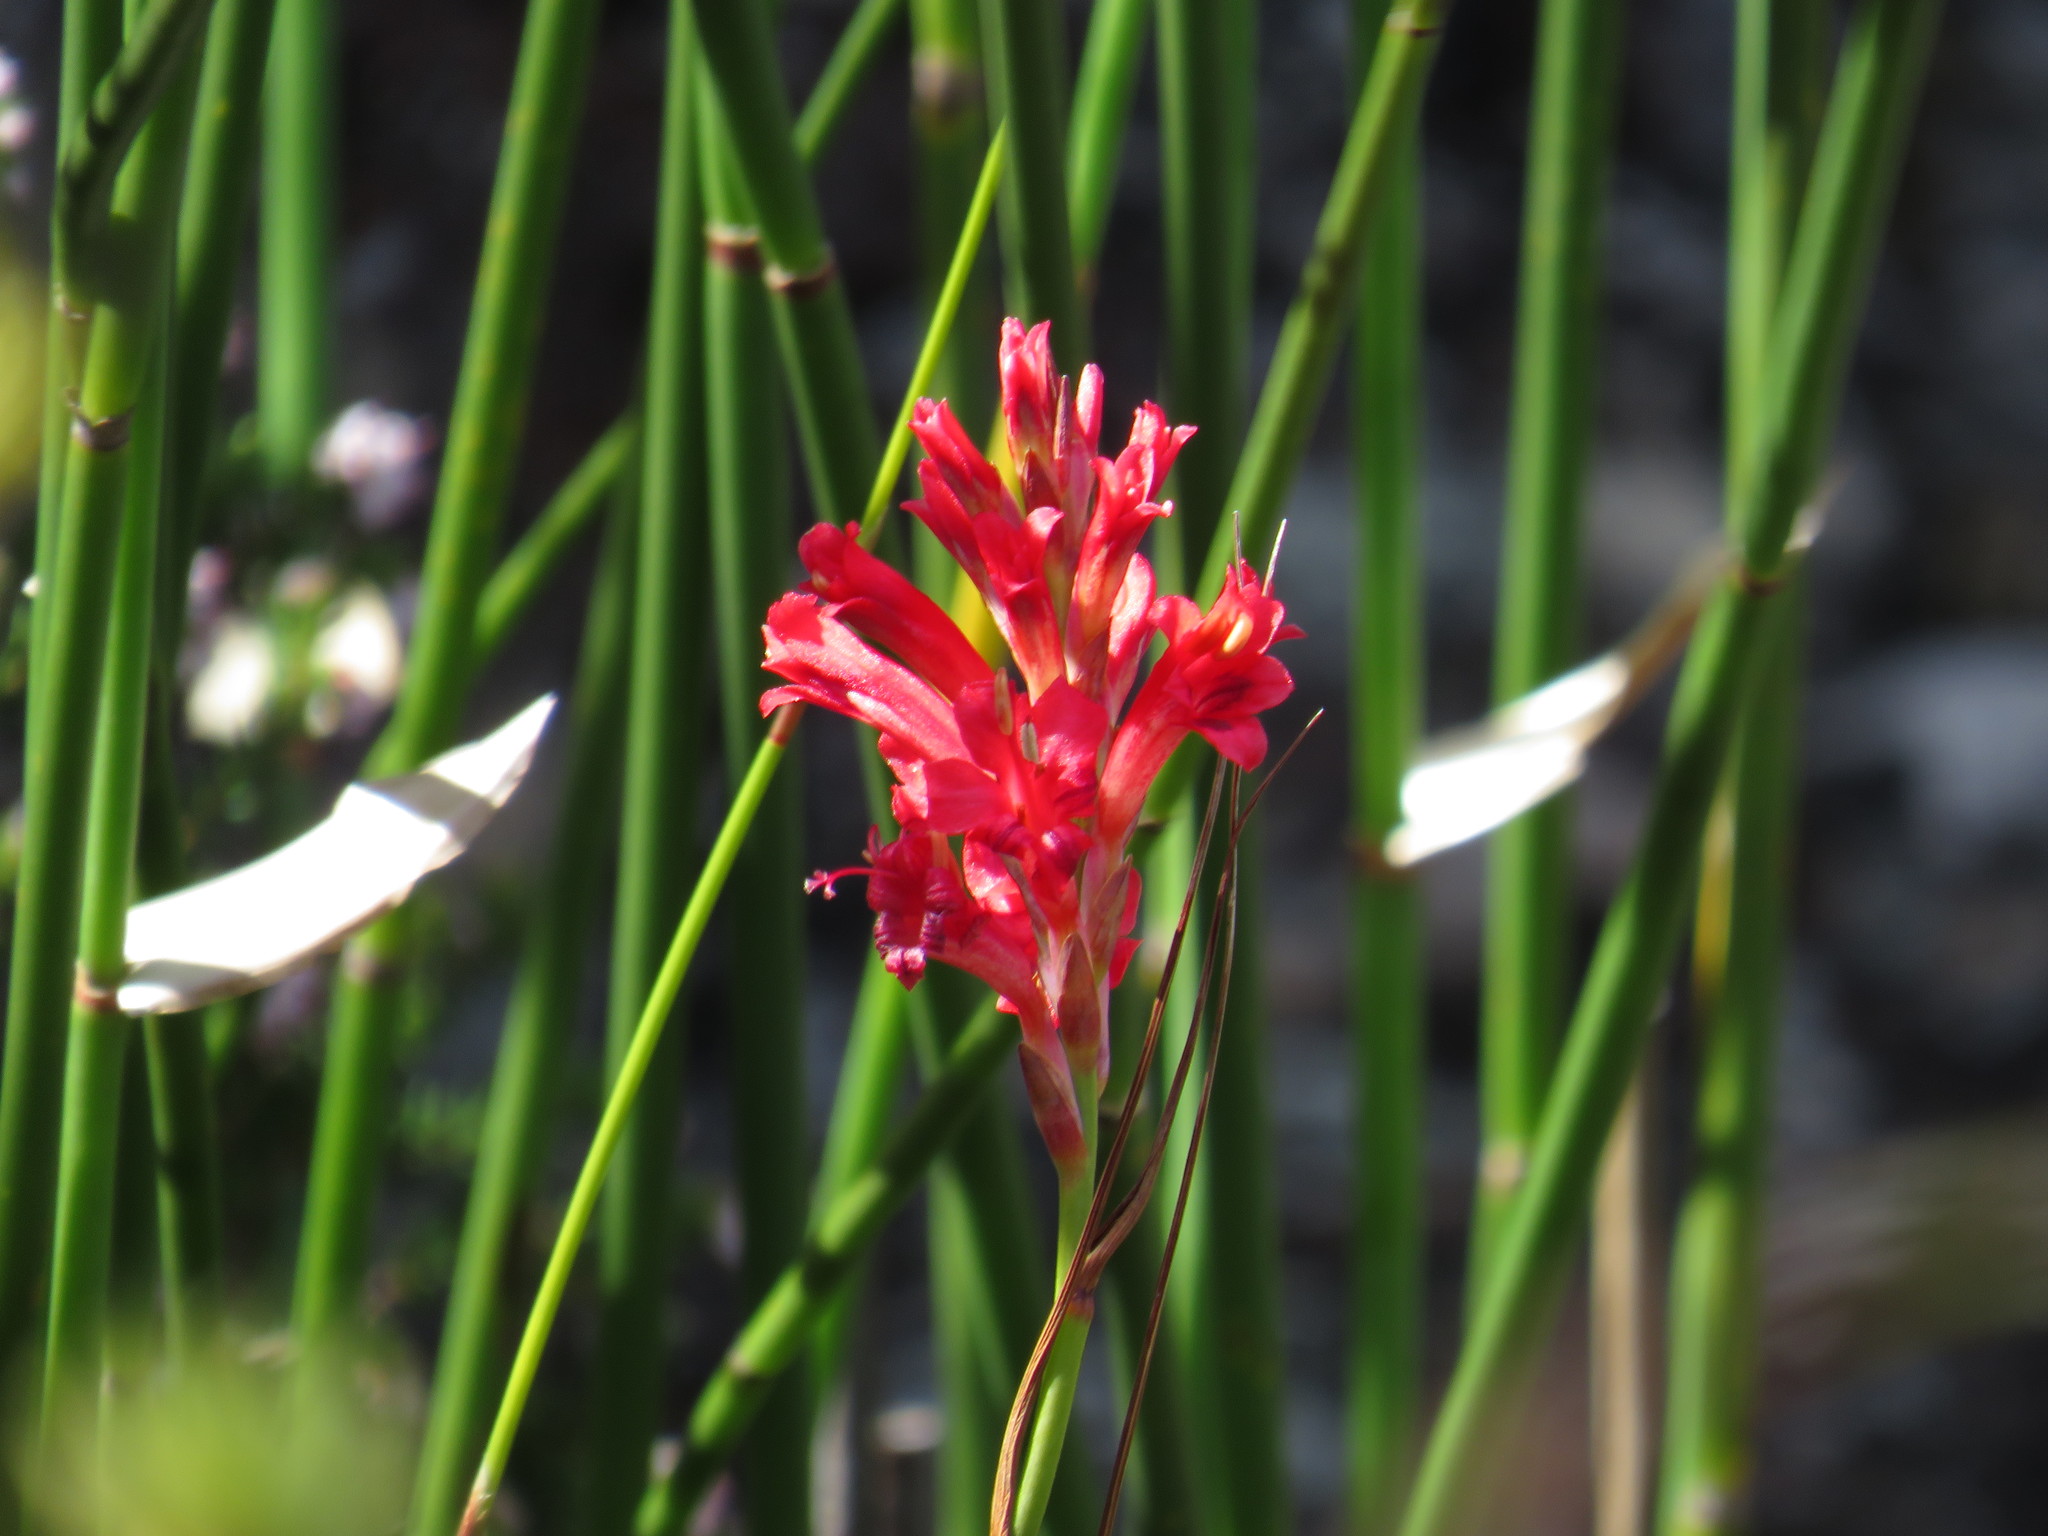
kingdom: Plantae
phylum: Tracheophyta
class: Liliopsida
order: Asparagales
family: Iridaceae
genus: Tritoniopsis
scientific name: Tritoniopsis triticea
